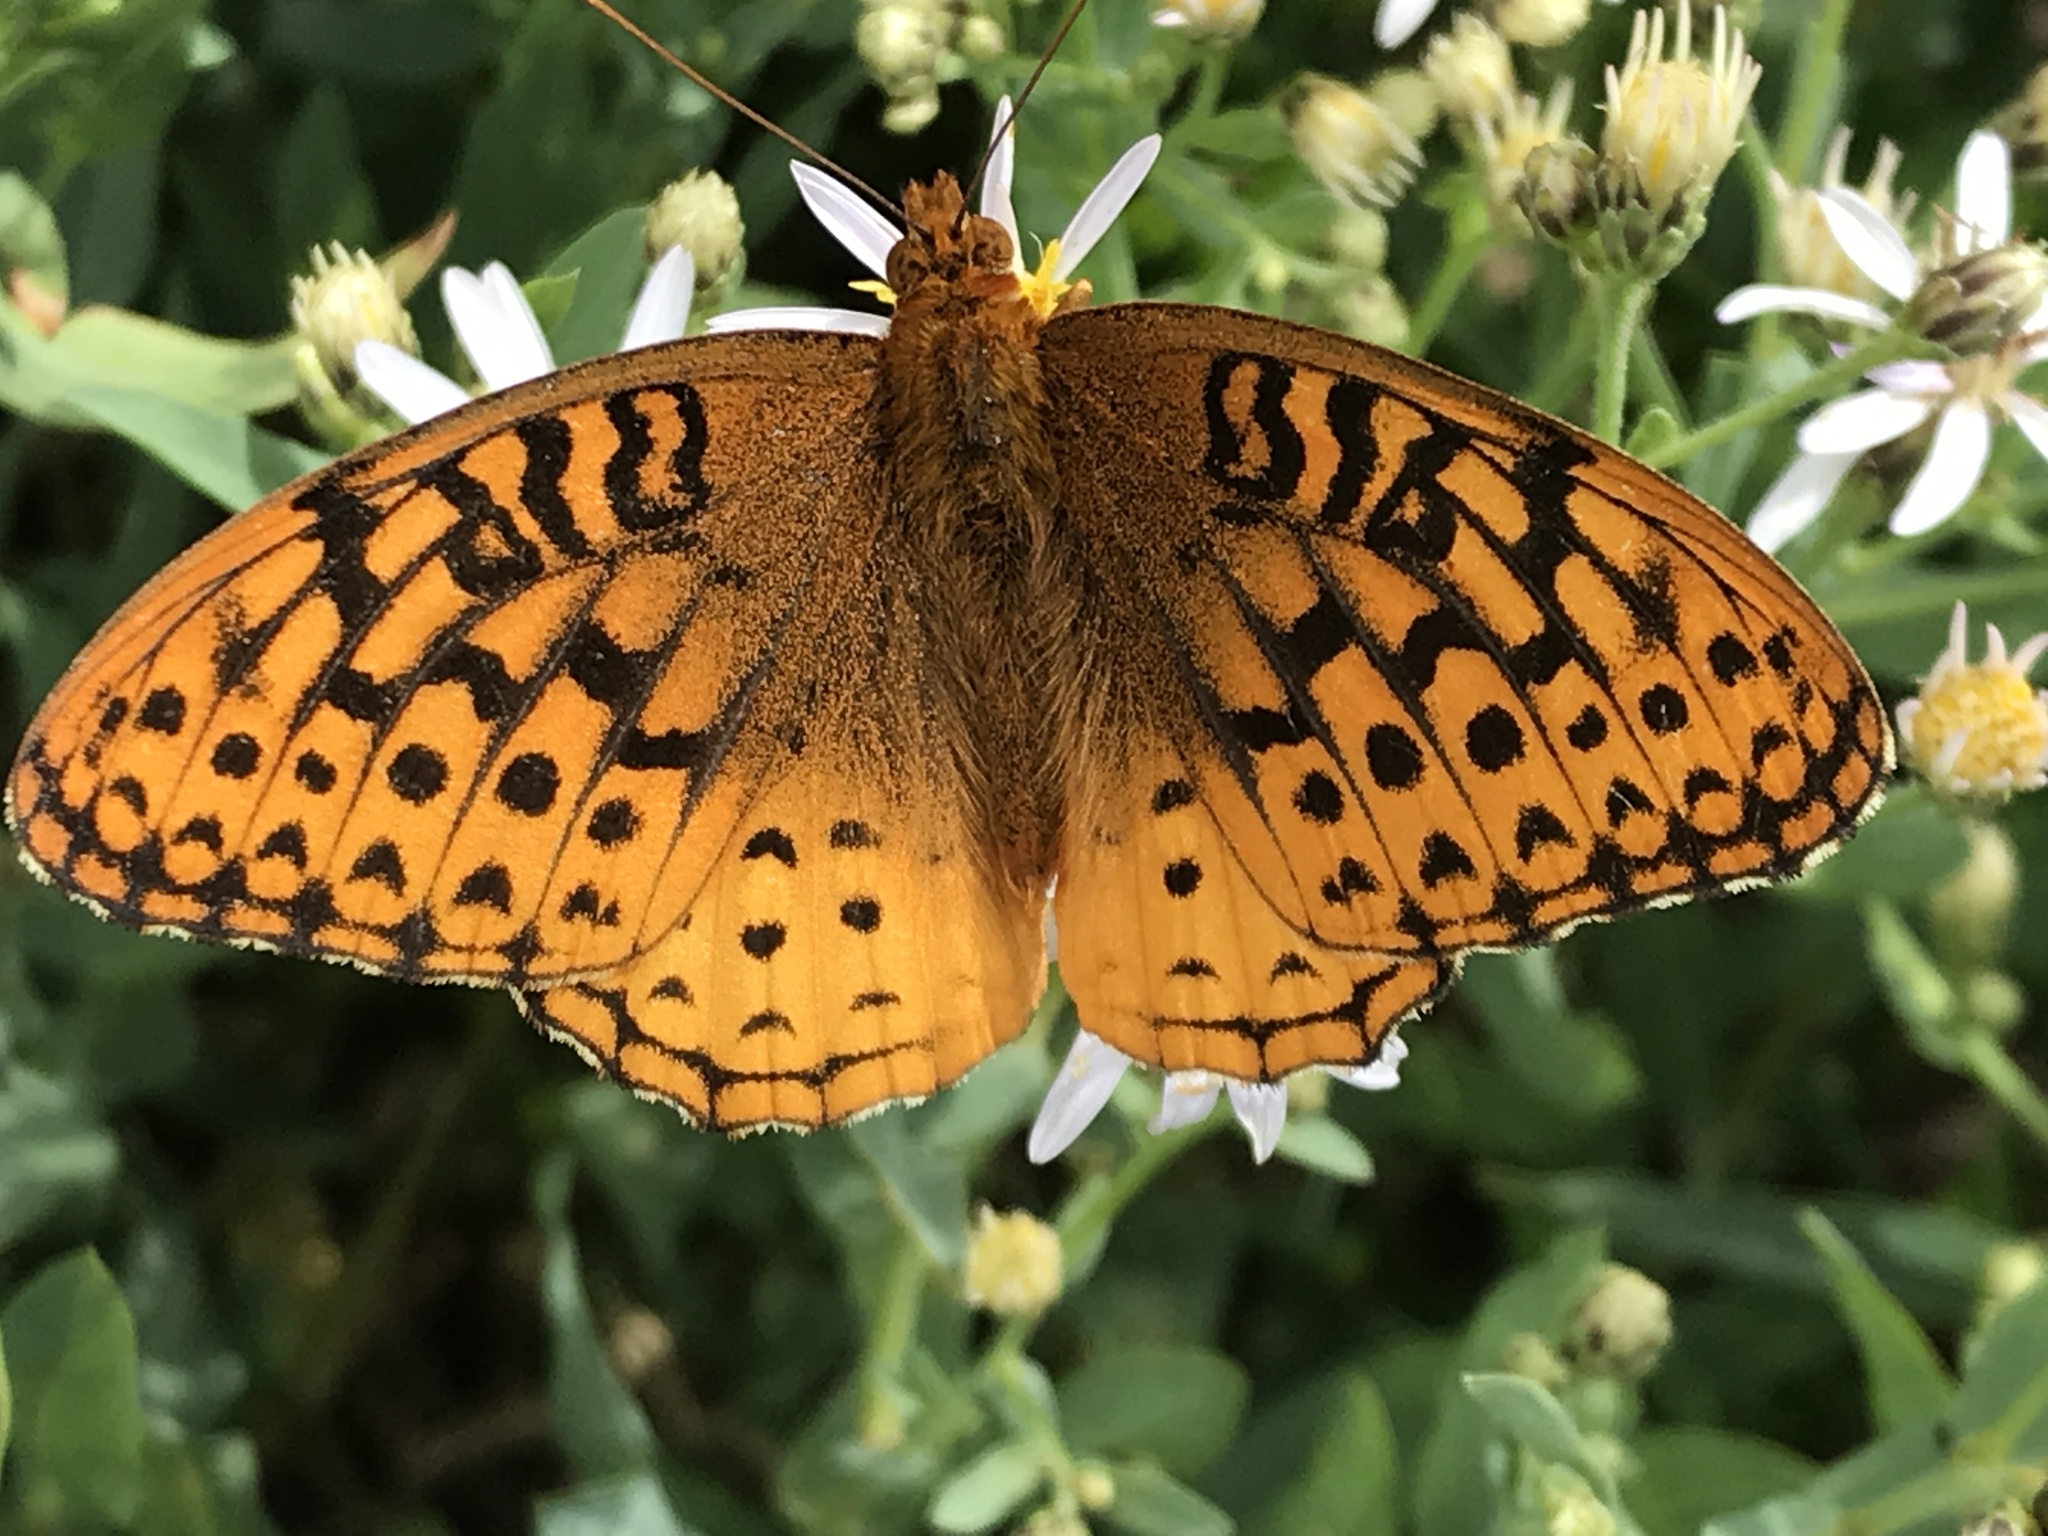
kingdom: Animalia
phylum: Arthropoda
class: Insecta
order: Lepidoptera
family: Nymphalidae
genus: Speyeria
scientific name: Speyeria cybele
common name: Great spangled fritillary
